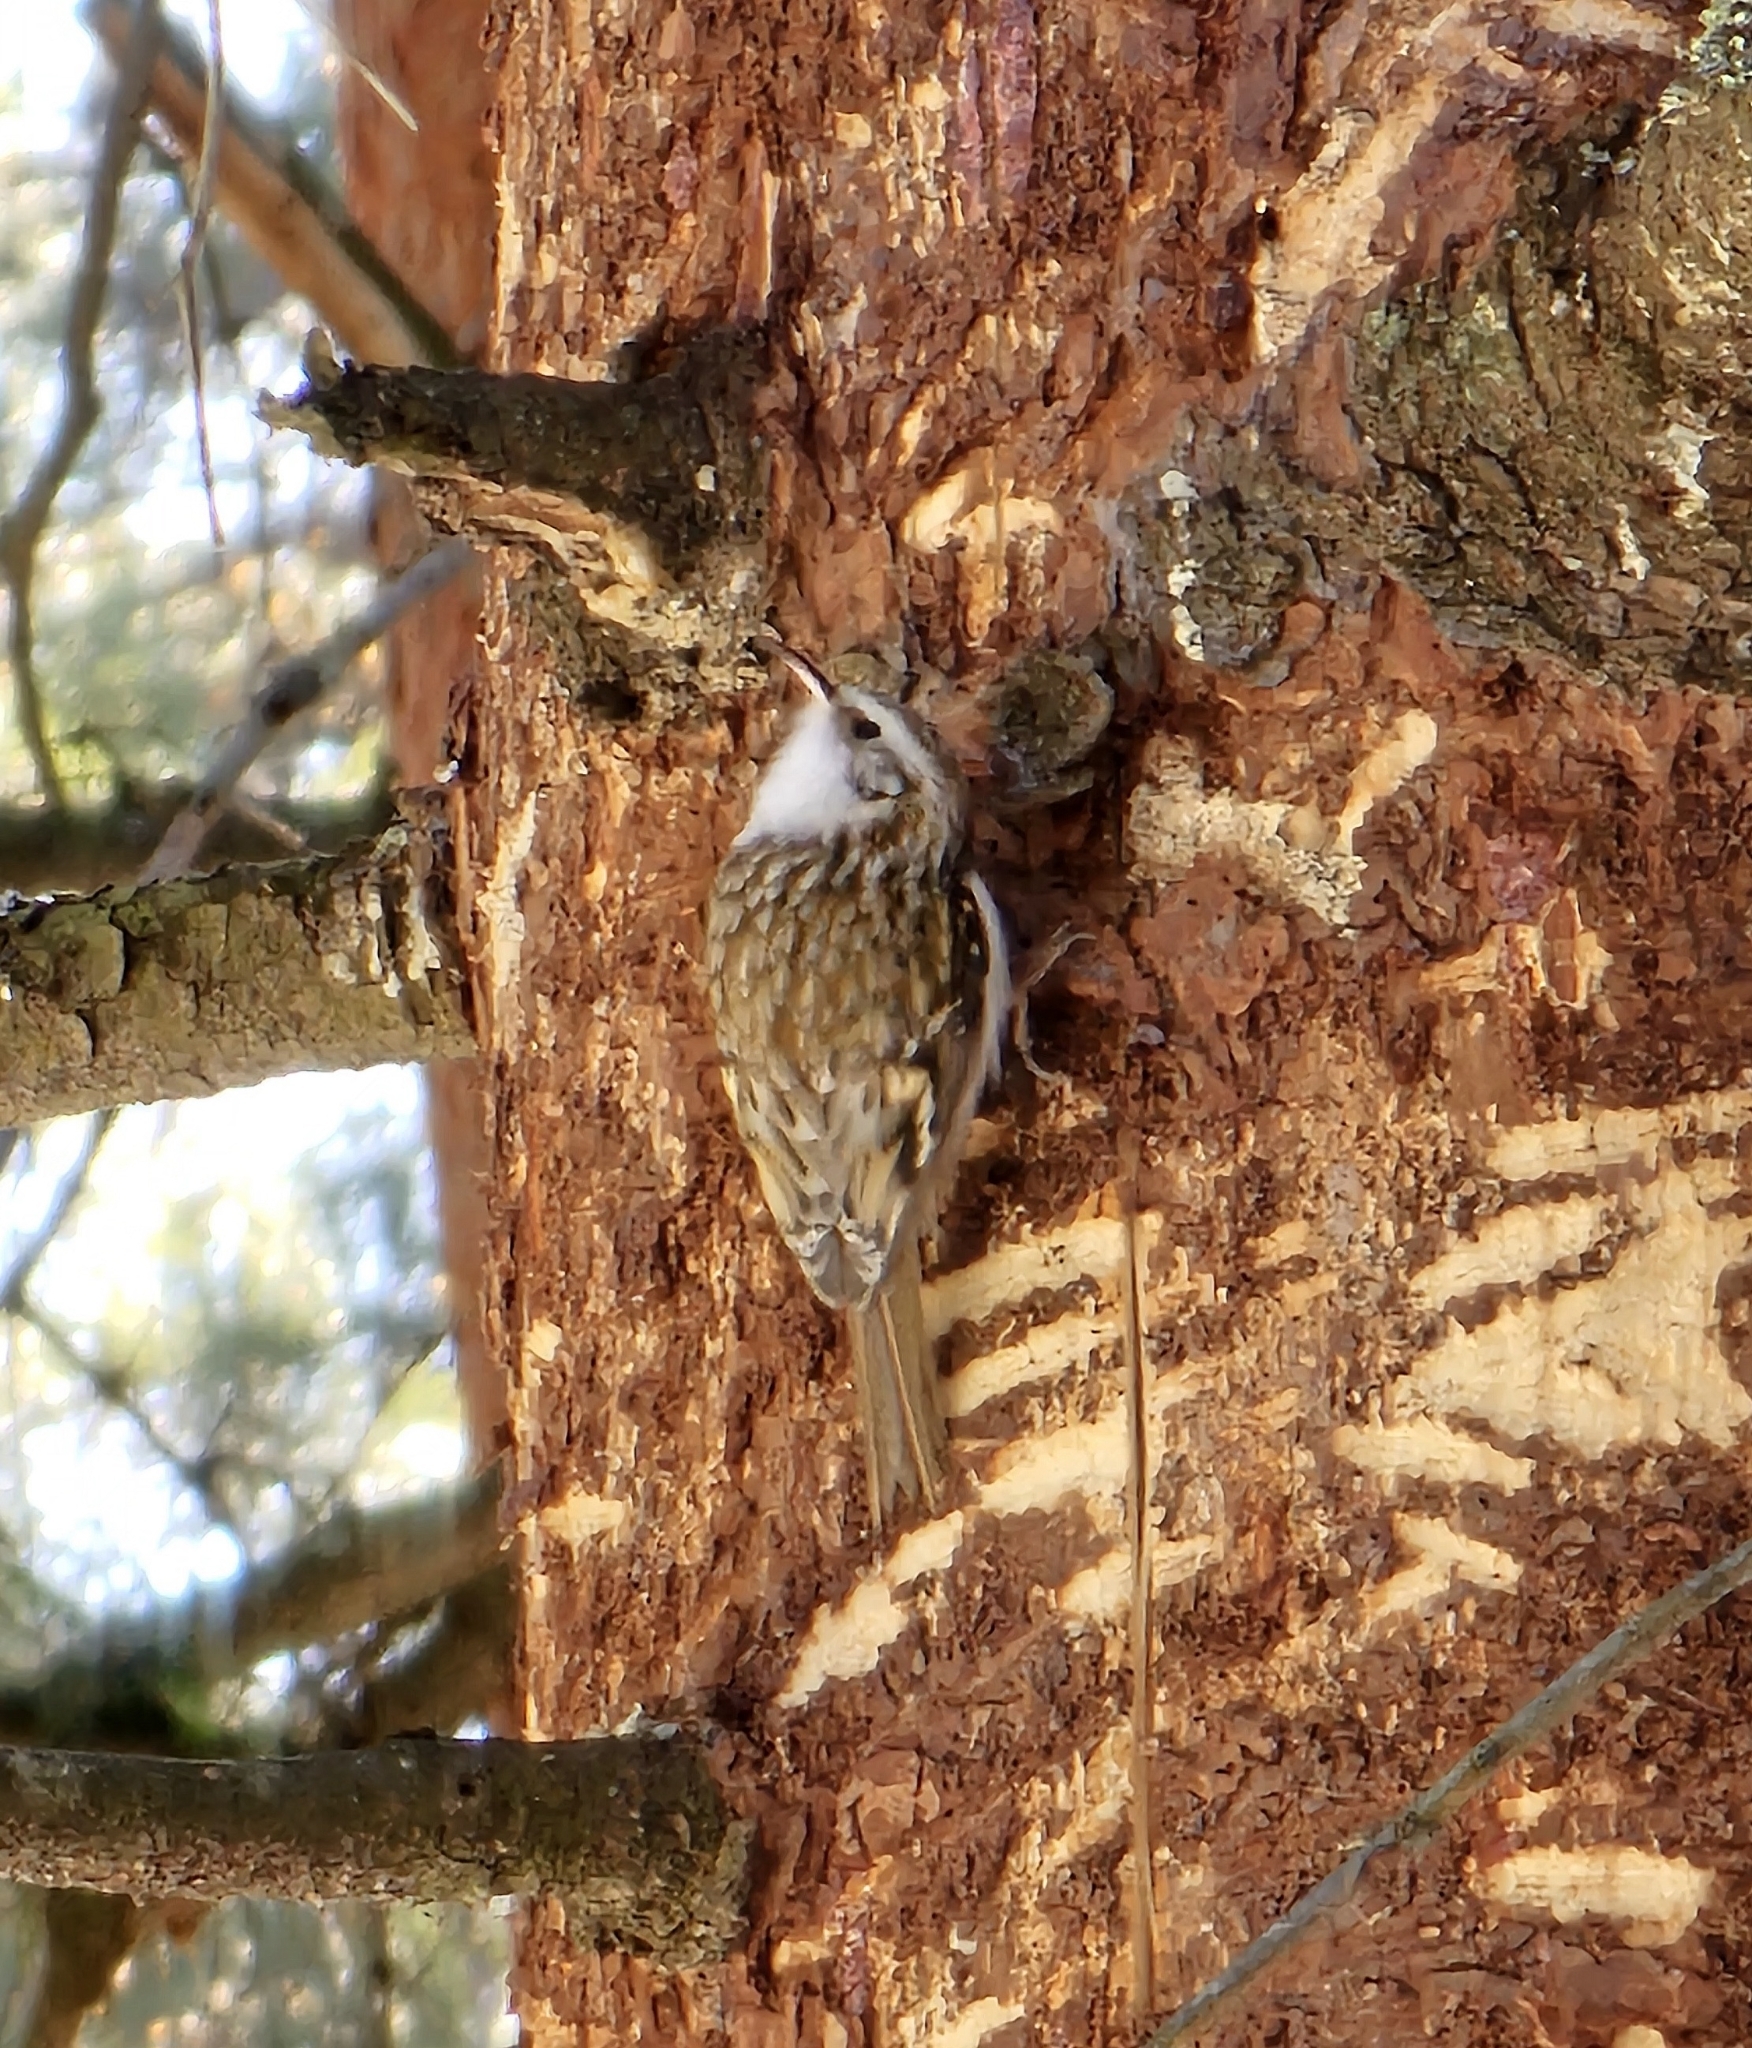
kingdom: Animalia
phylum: Chordata
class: Aves
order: Passeriformes
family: Certhiidae
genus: Certhia
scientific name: Certhia familiaris
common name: Eurasian treecreeper
